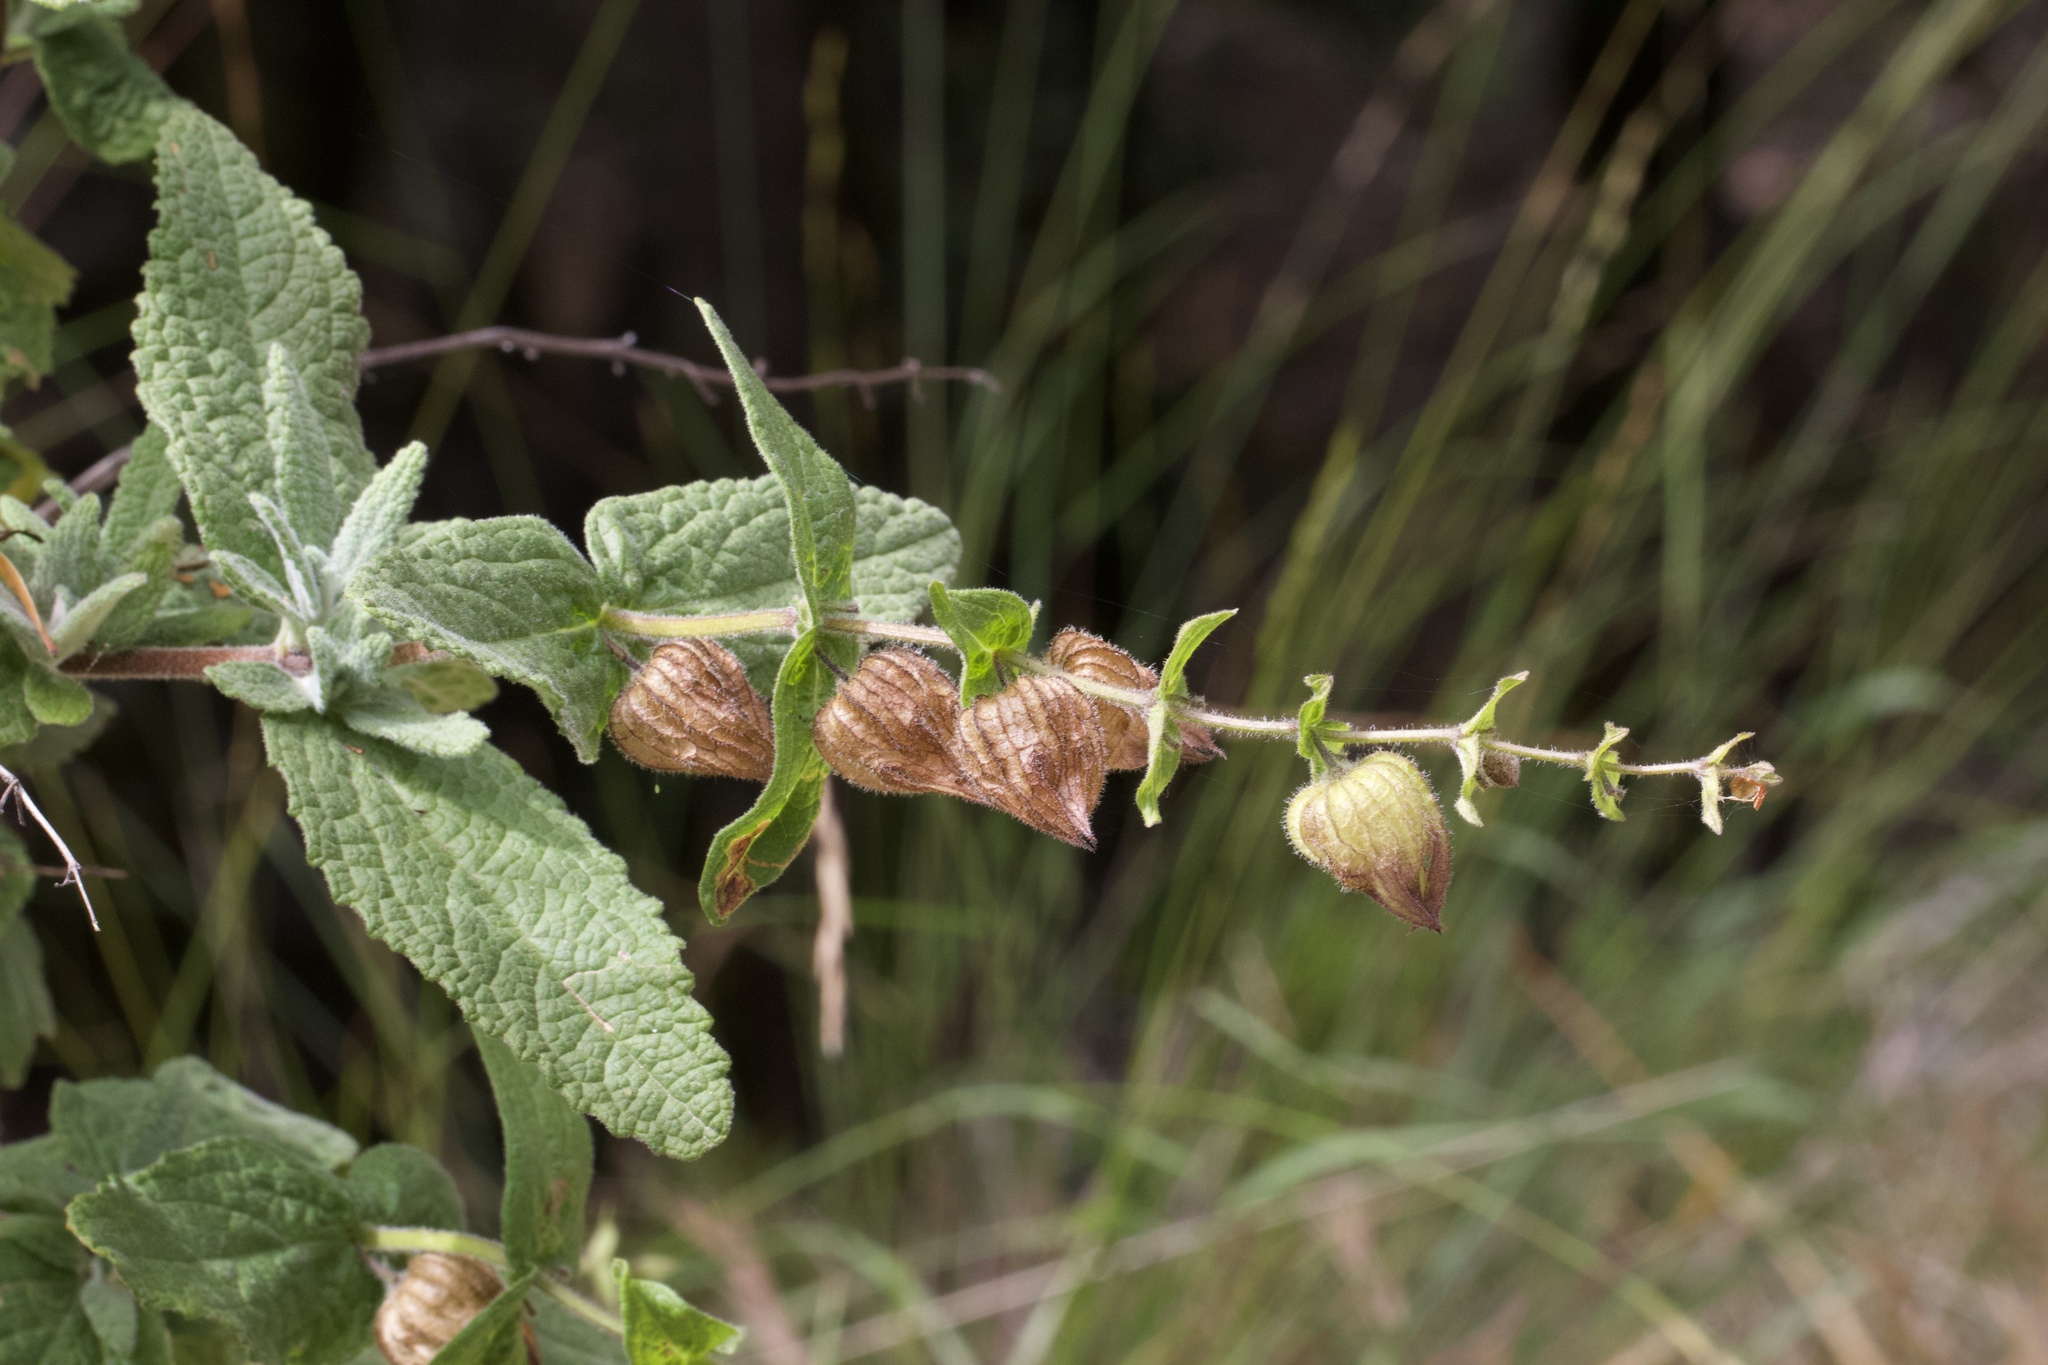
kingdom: Plantae
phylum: Tracheophyta
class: Magnoliopsida
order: Lamiales
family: Lamiaceae
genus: Lepechinia
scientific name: Lepechinia calycina
